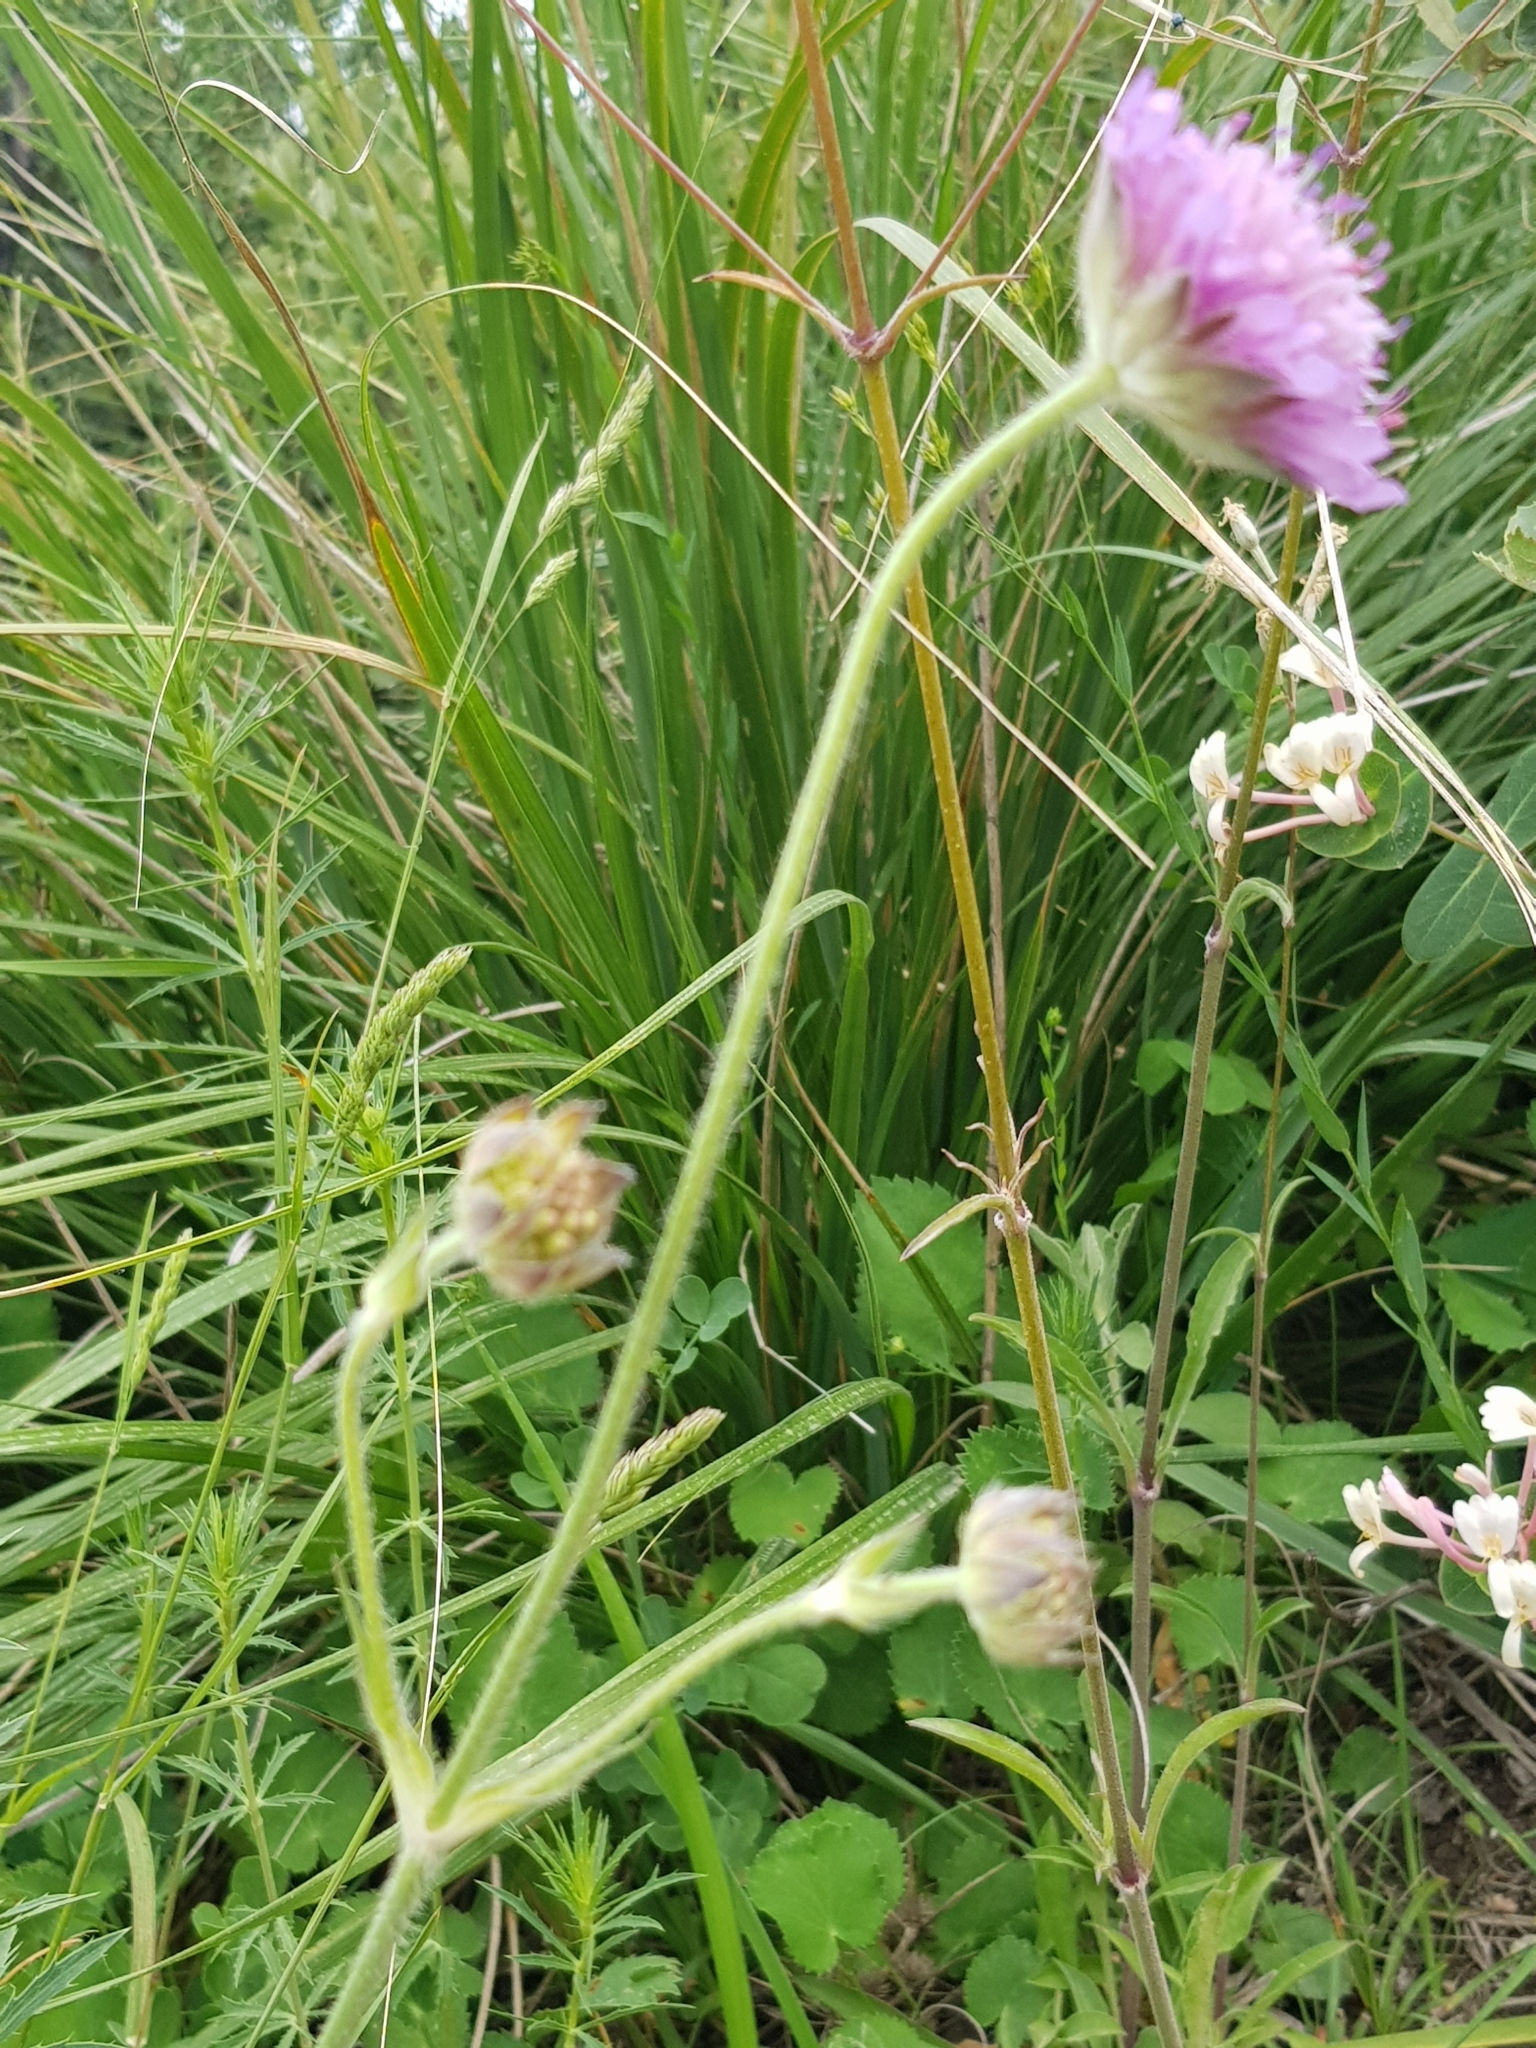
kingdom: Plantae
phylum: Tracheophyta
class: Magnoliopsida
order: Dipsacales
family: Caprifoliaceae
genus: Knautia
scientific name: Knautia mauritanica
